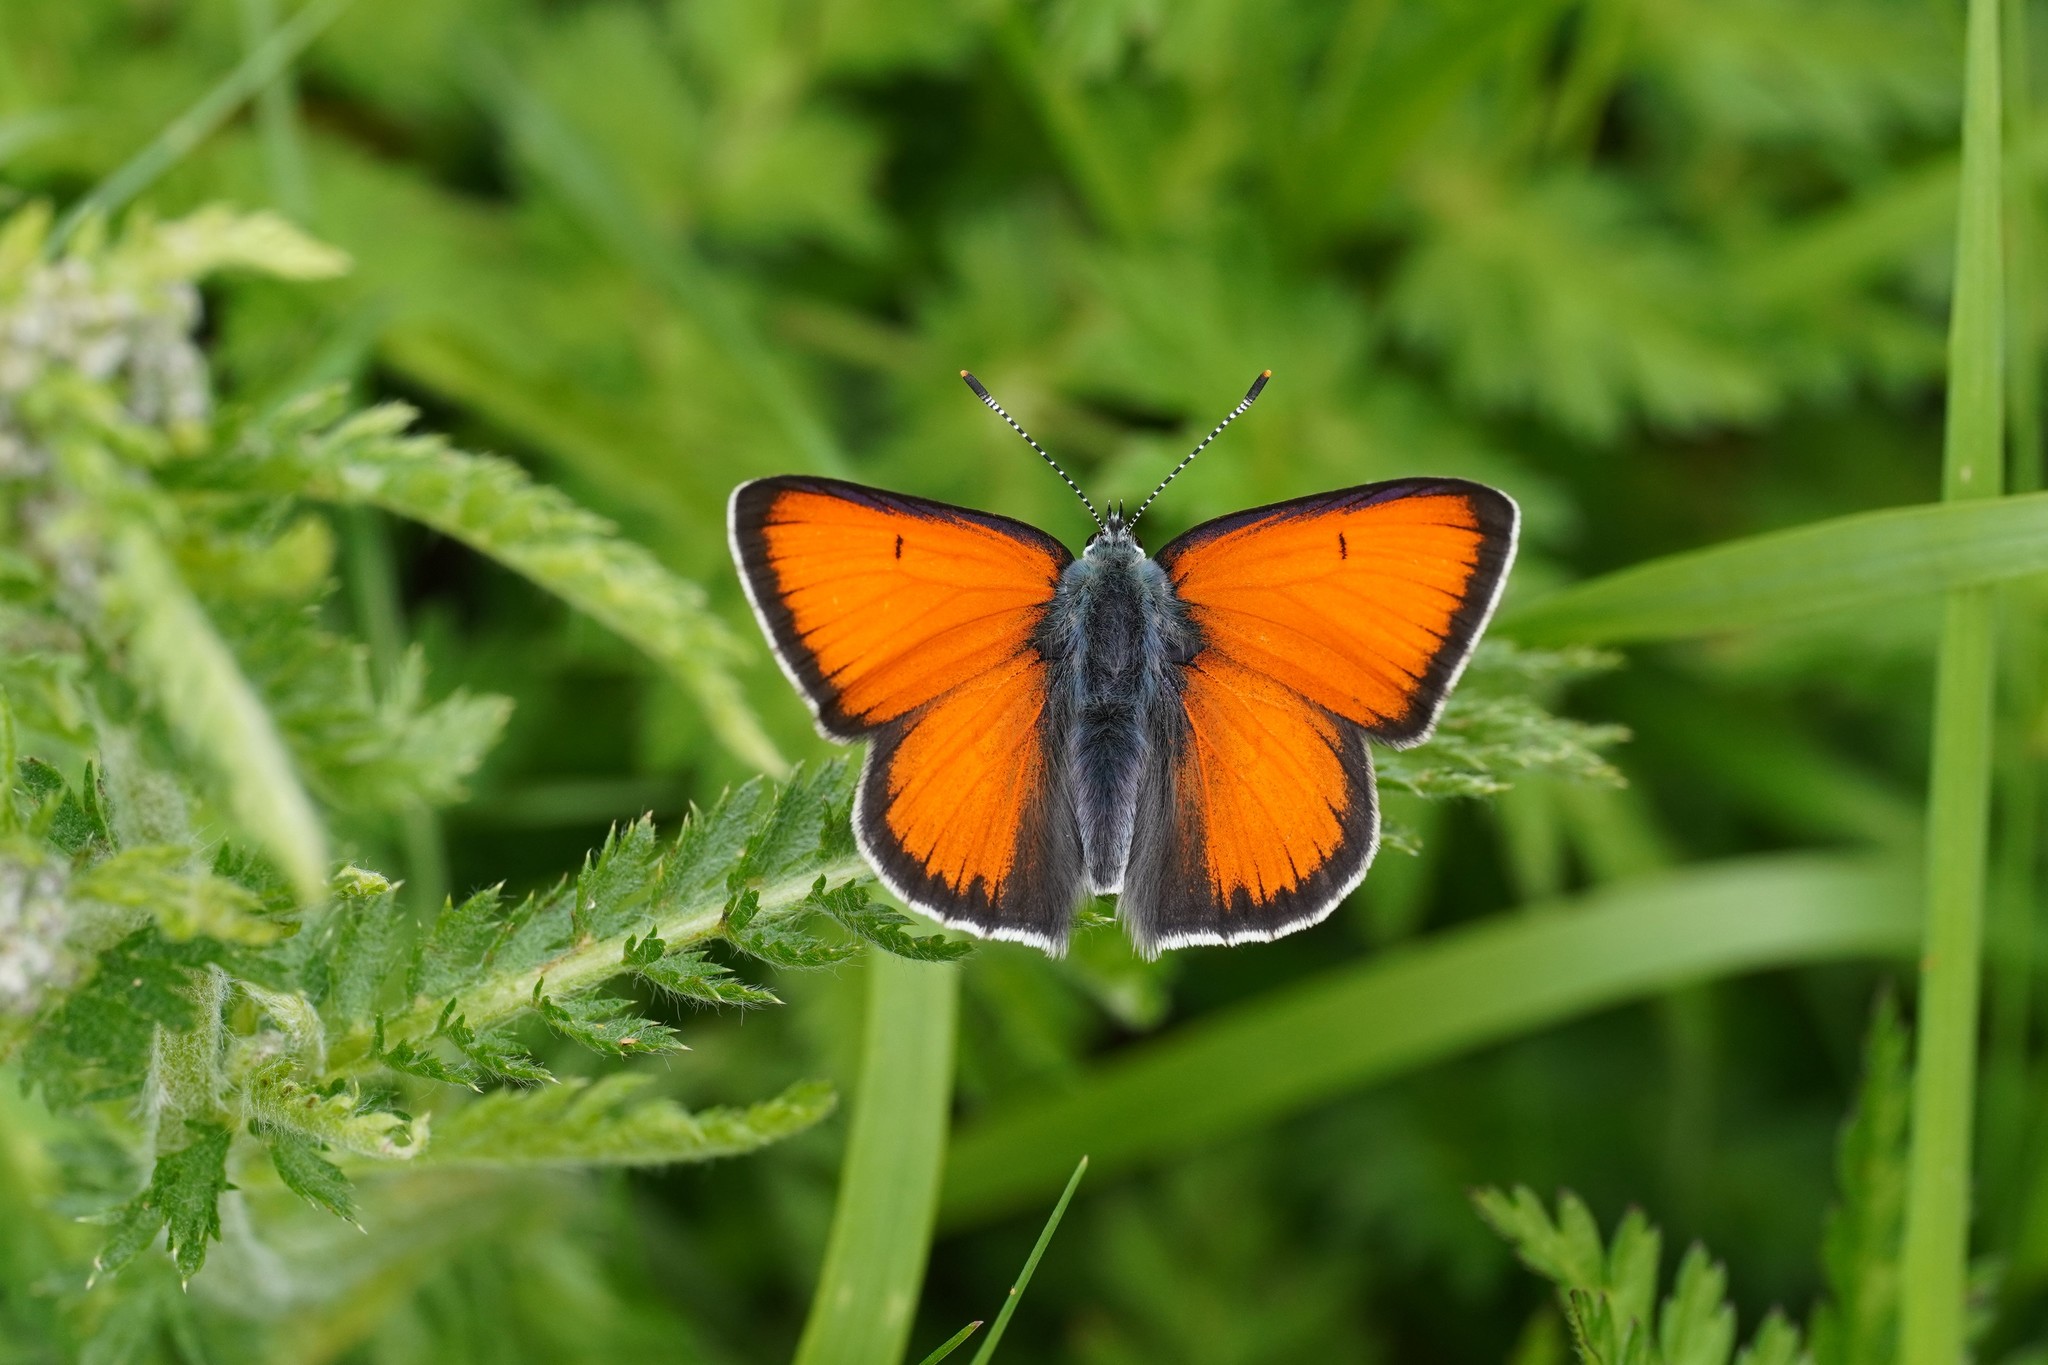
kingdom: Animalia
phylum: Arthropoda
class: Insecta
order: Lepidoptera
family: Lycaenidae
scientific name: Lycaenidae
